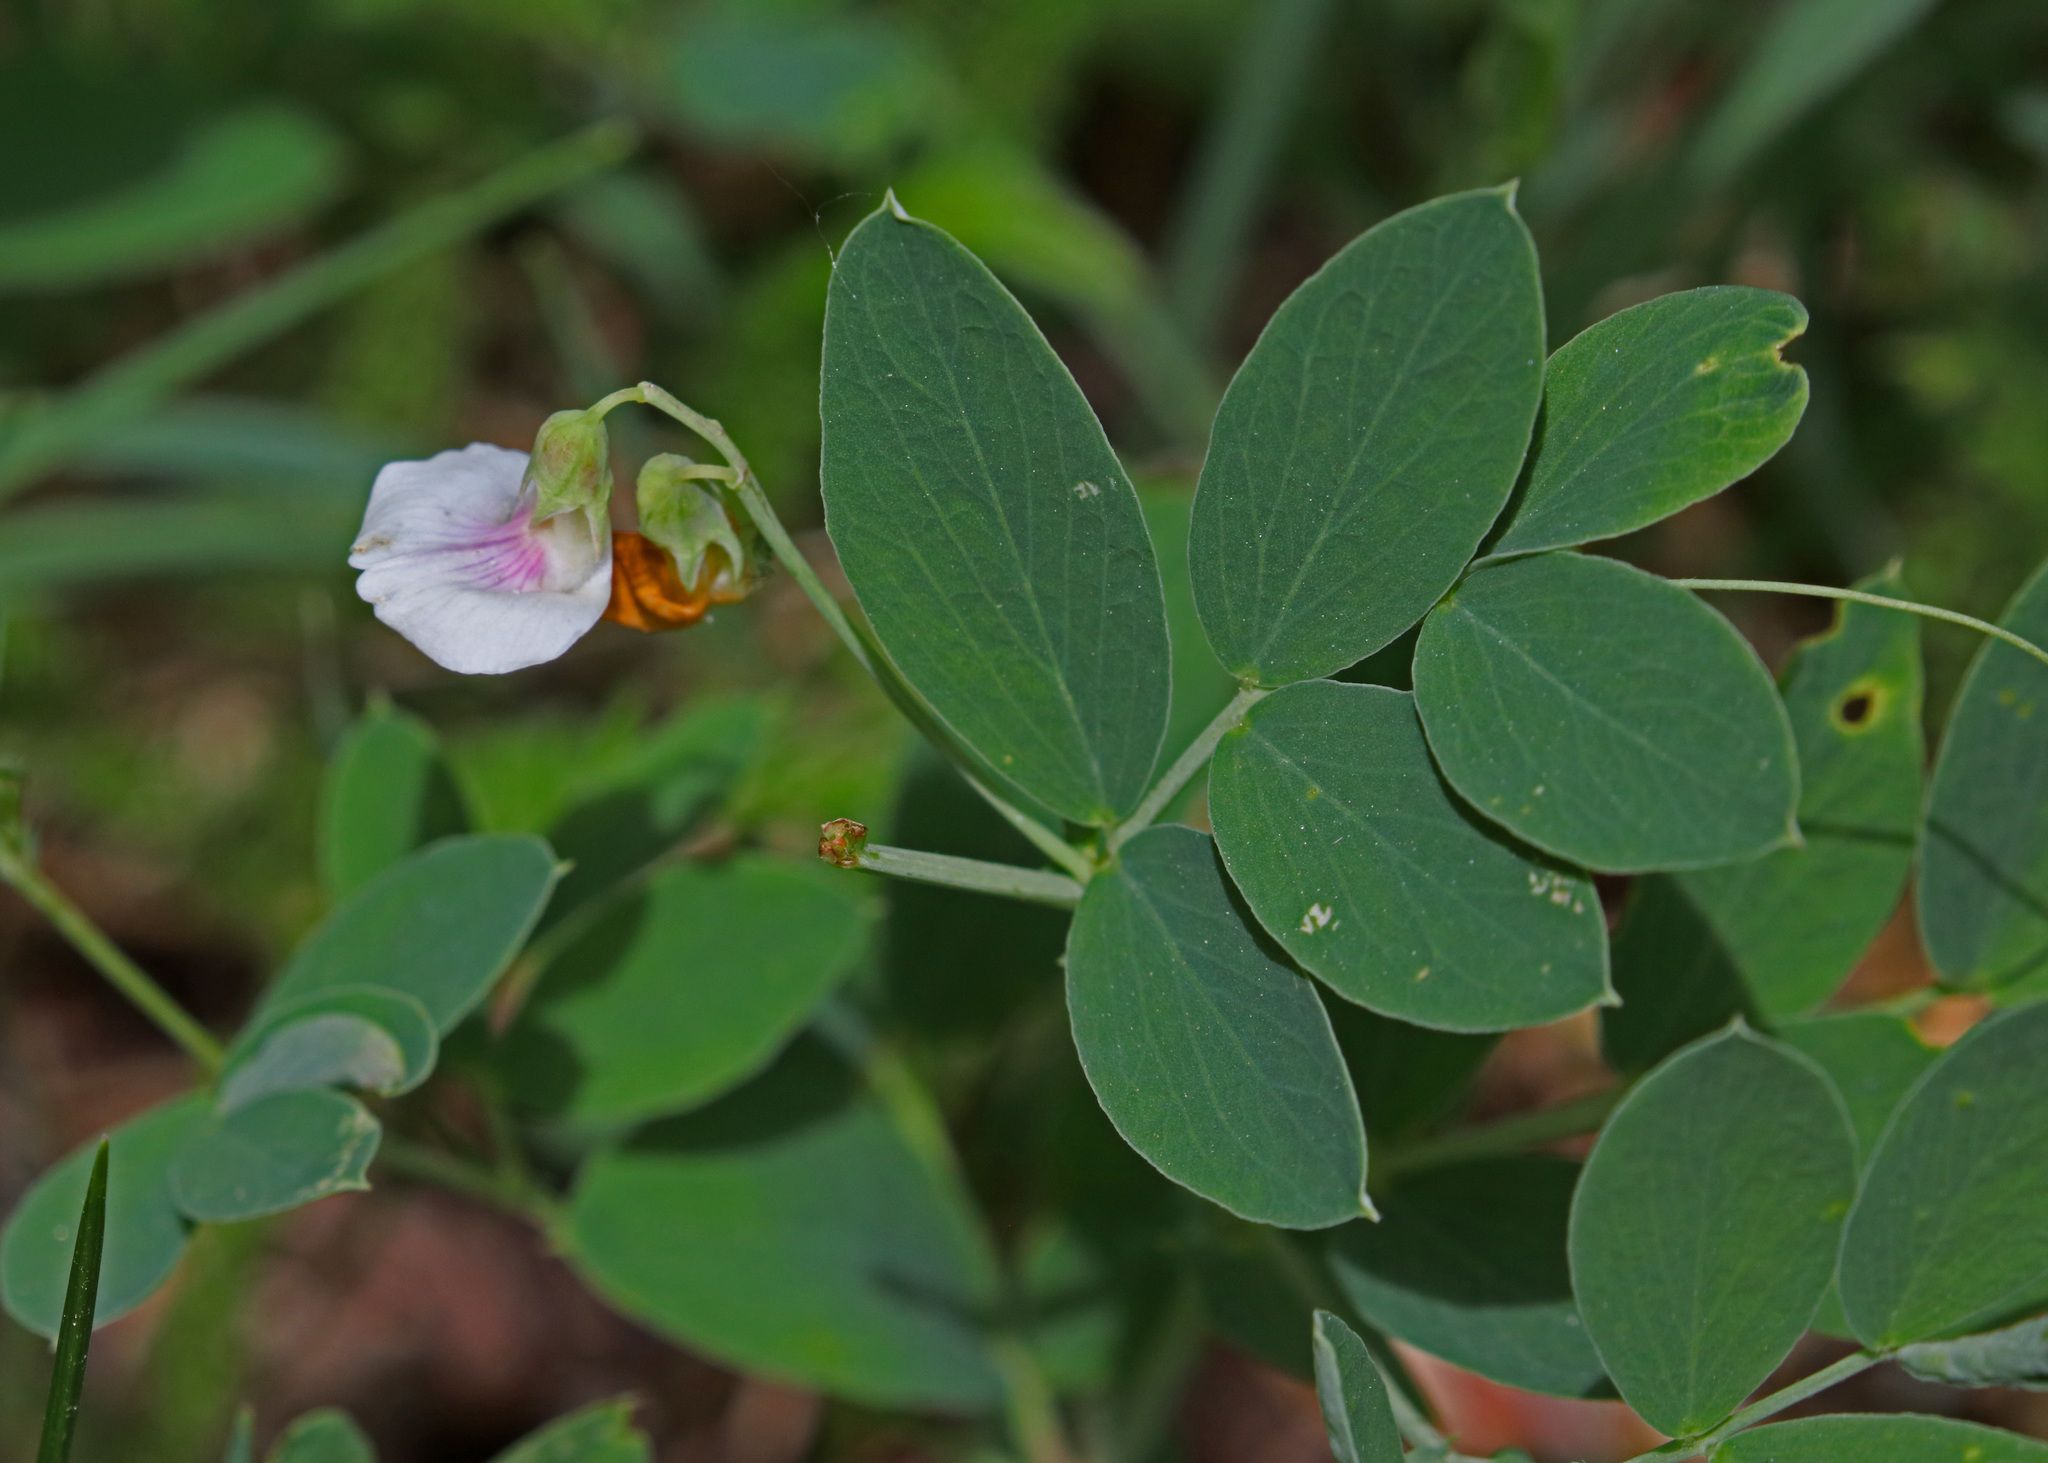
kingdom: Plantae
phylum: Tracheophyta
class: Magnoliopsida
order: Fabales
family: Fabaceae
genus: Lathyrus
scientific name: Lathyrus lanszwertii
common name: Lanszwert's vetchling
